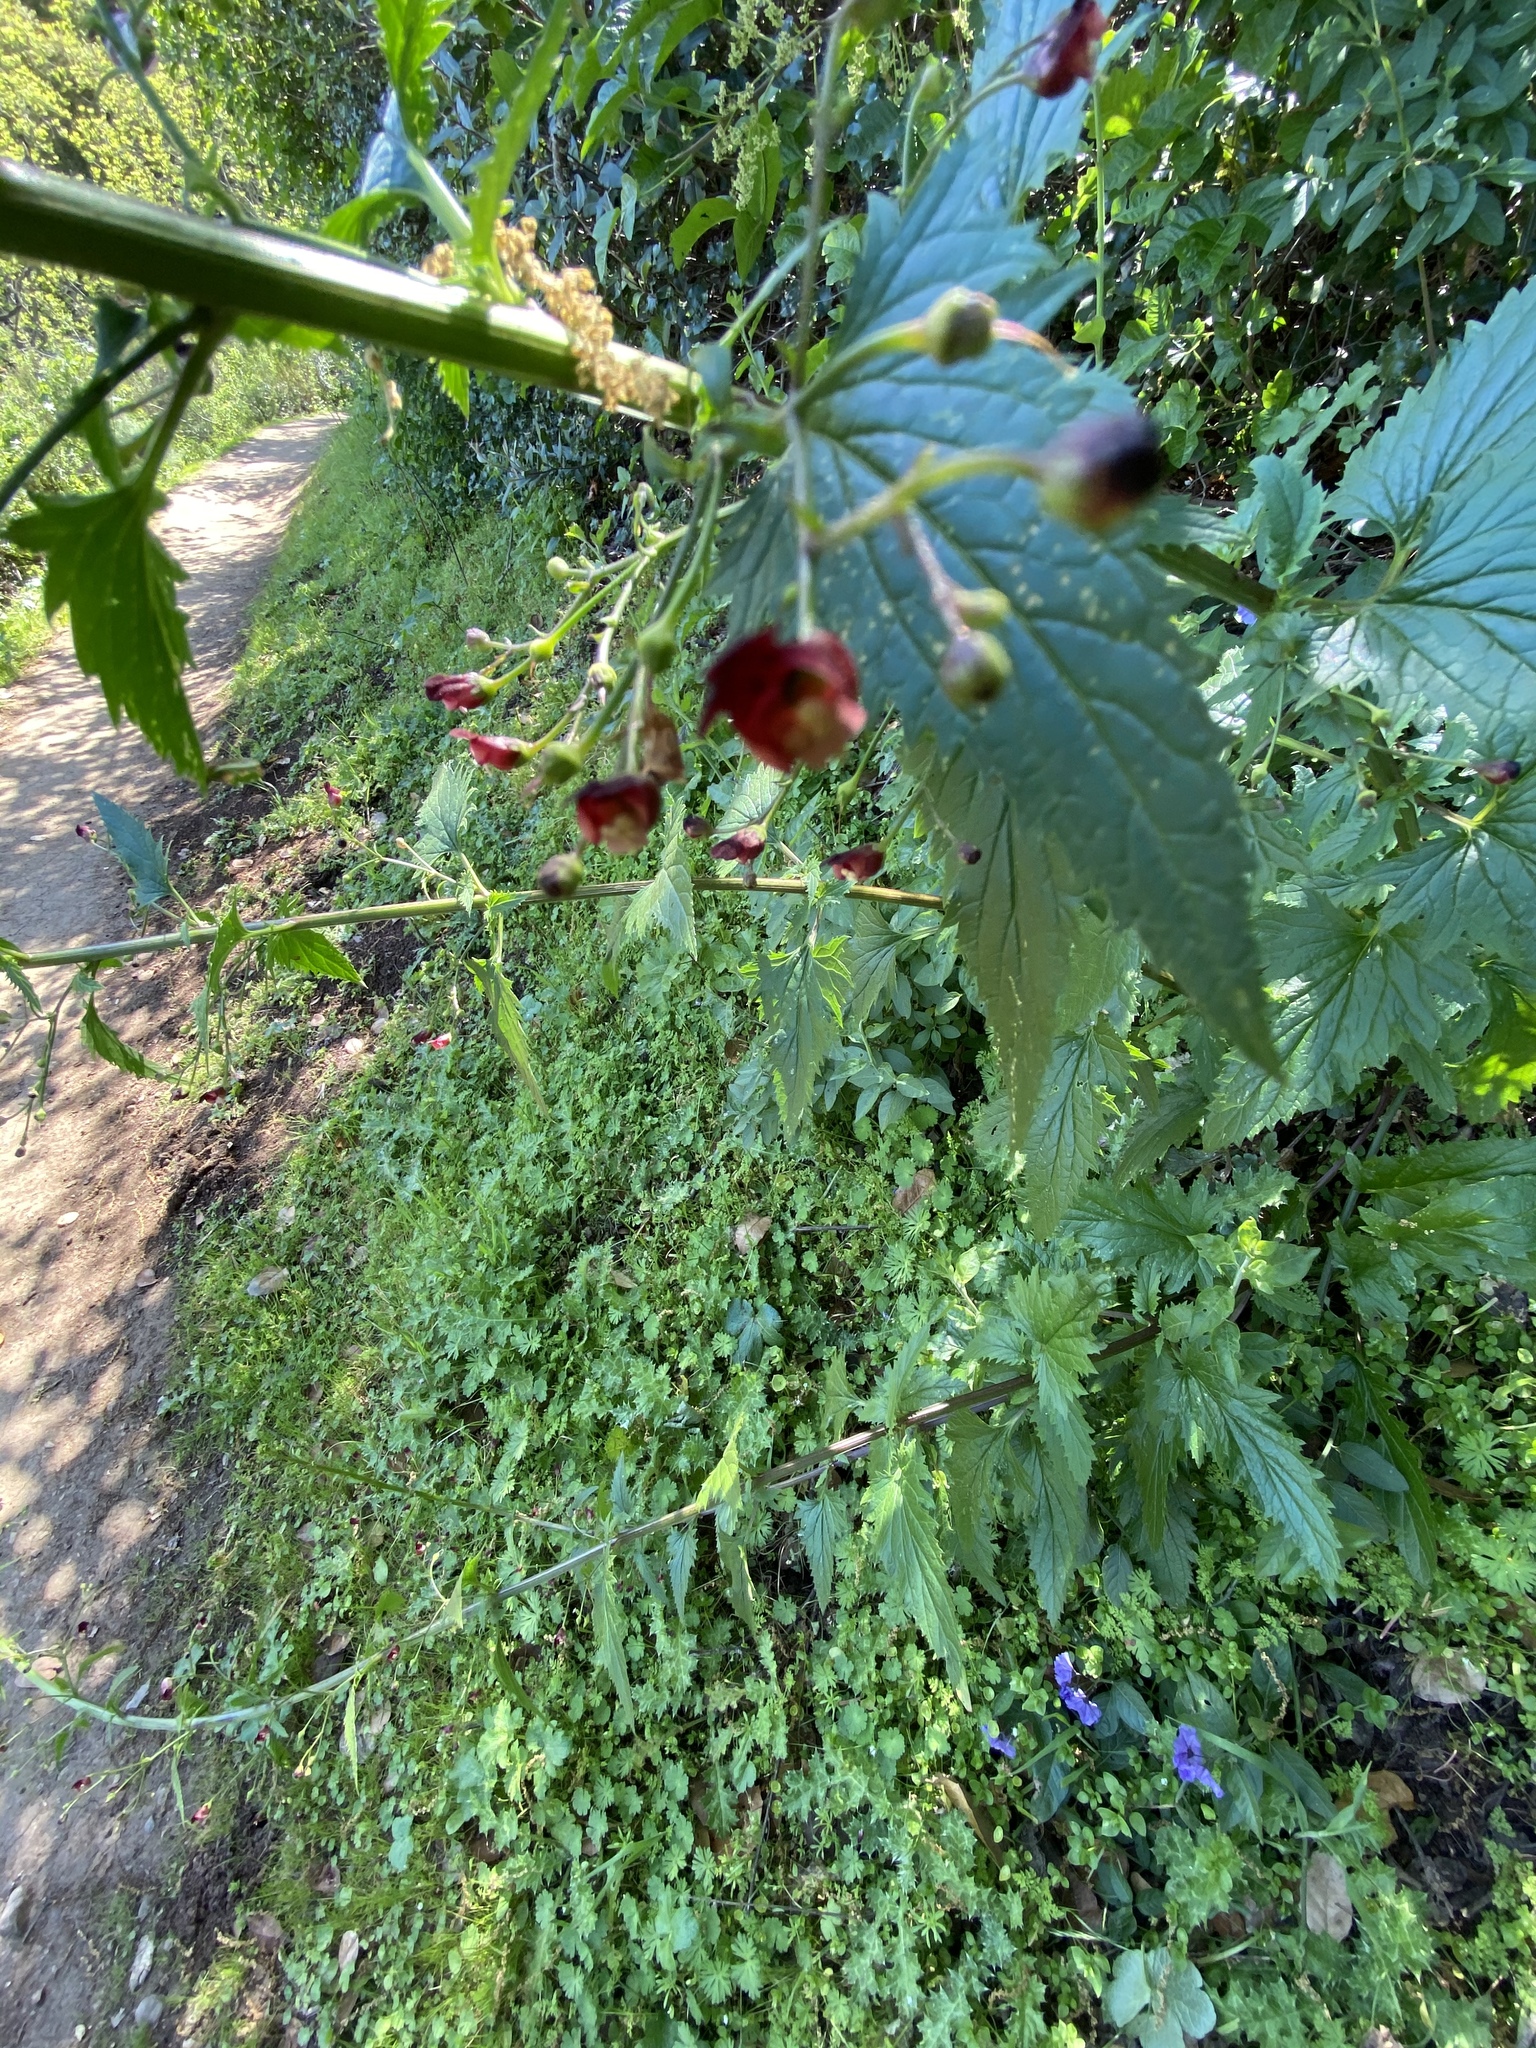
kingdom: Plantae
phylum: Tracheophyta
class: Magnoliopsida
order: Lamiales
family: Scrophulariaceae
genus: Scrophularia
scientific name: Scrophularia californica
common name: California figwort
